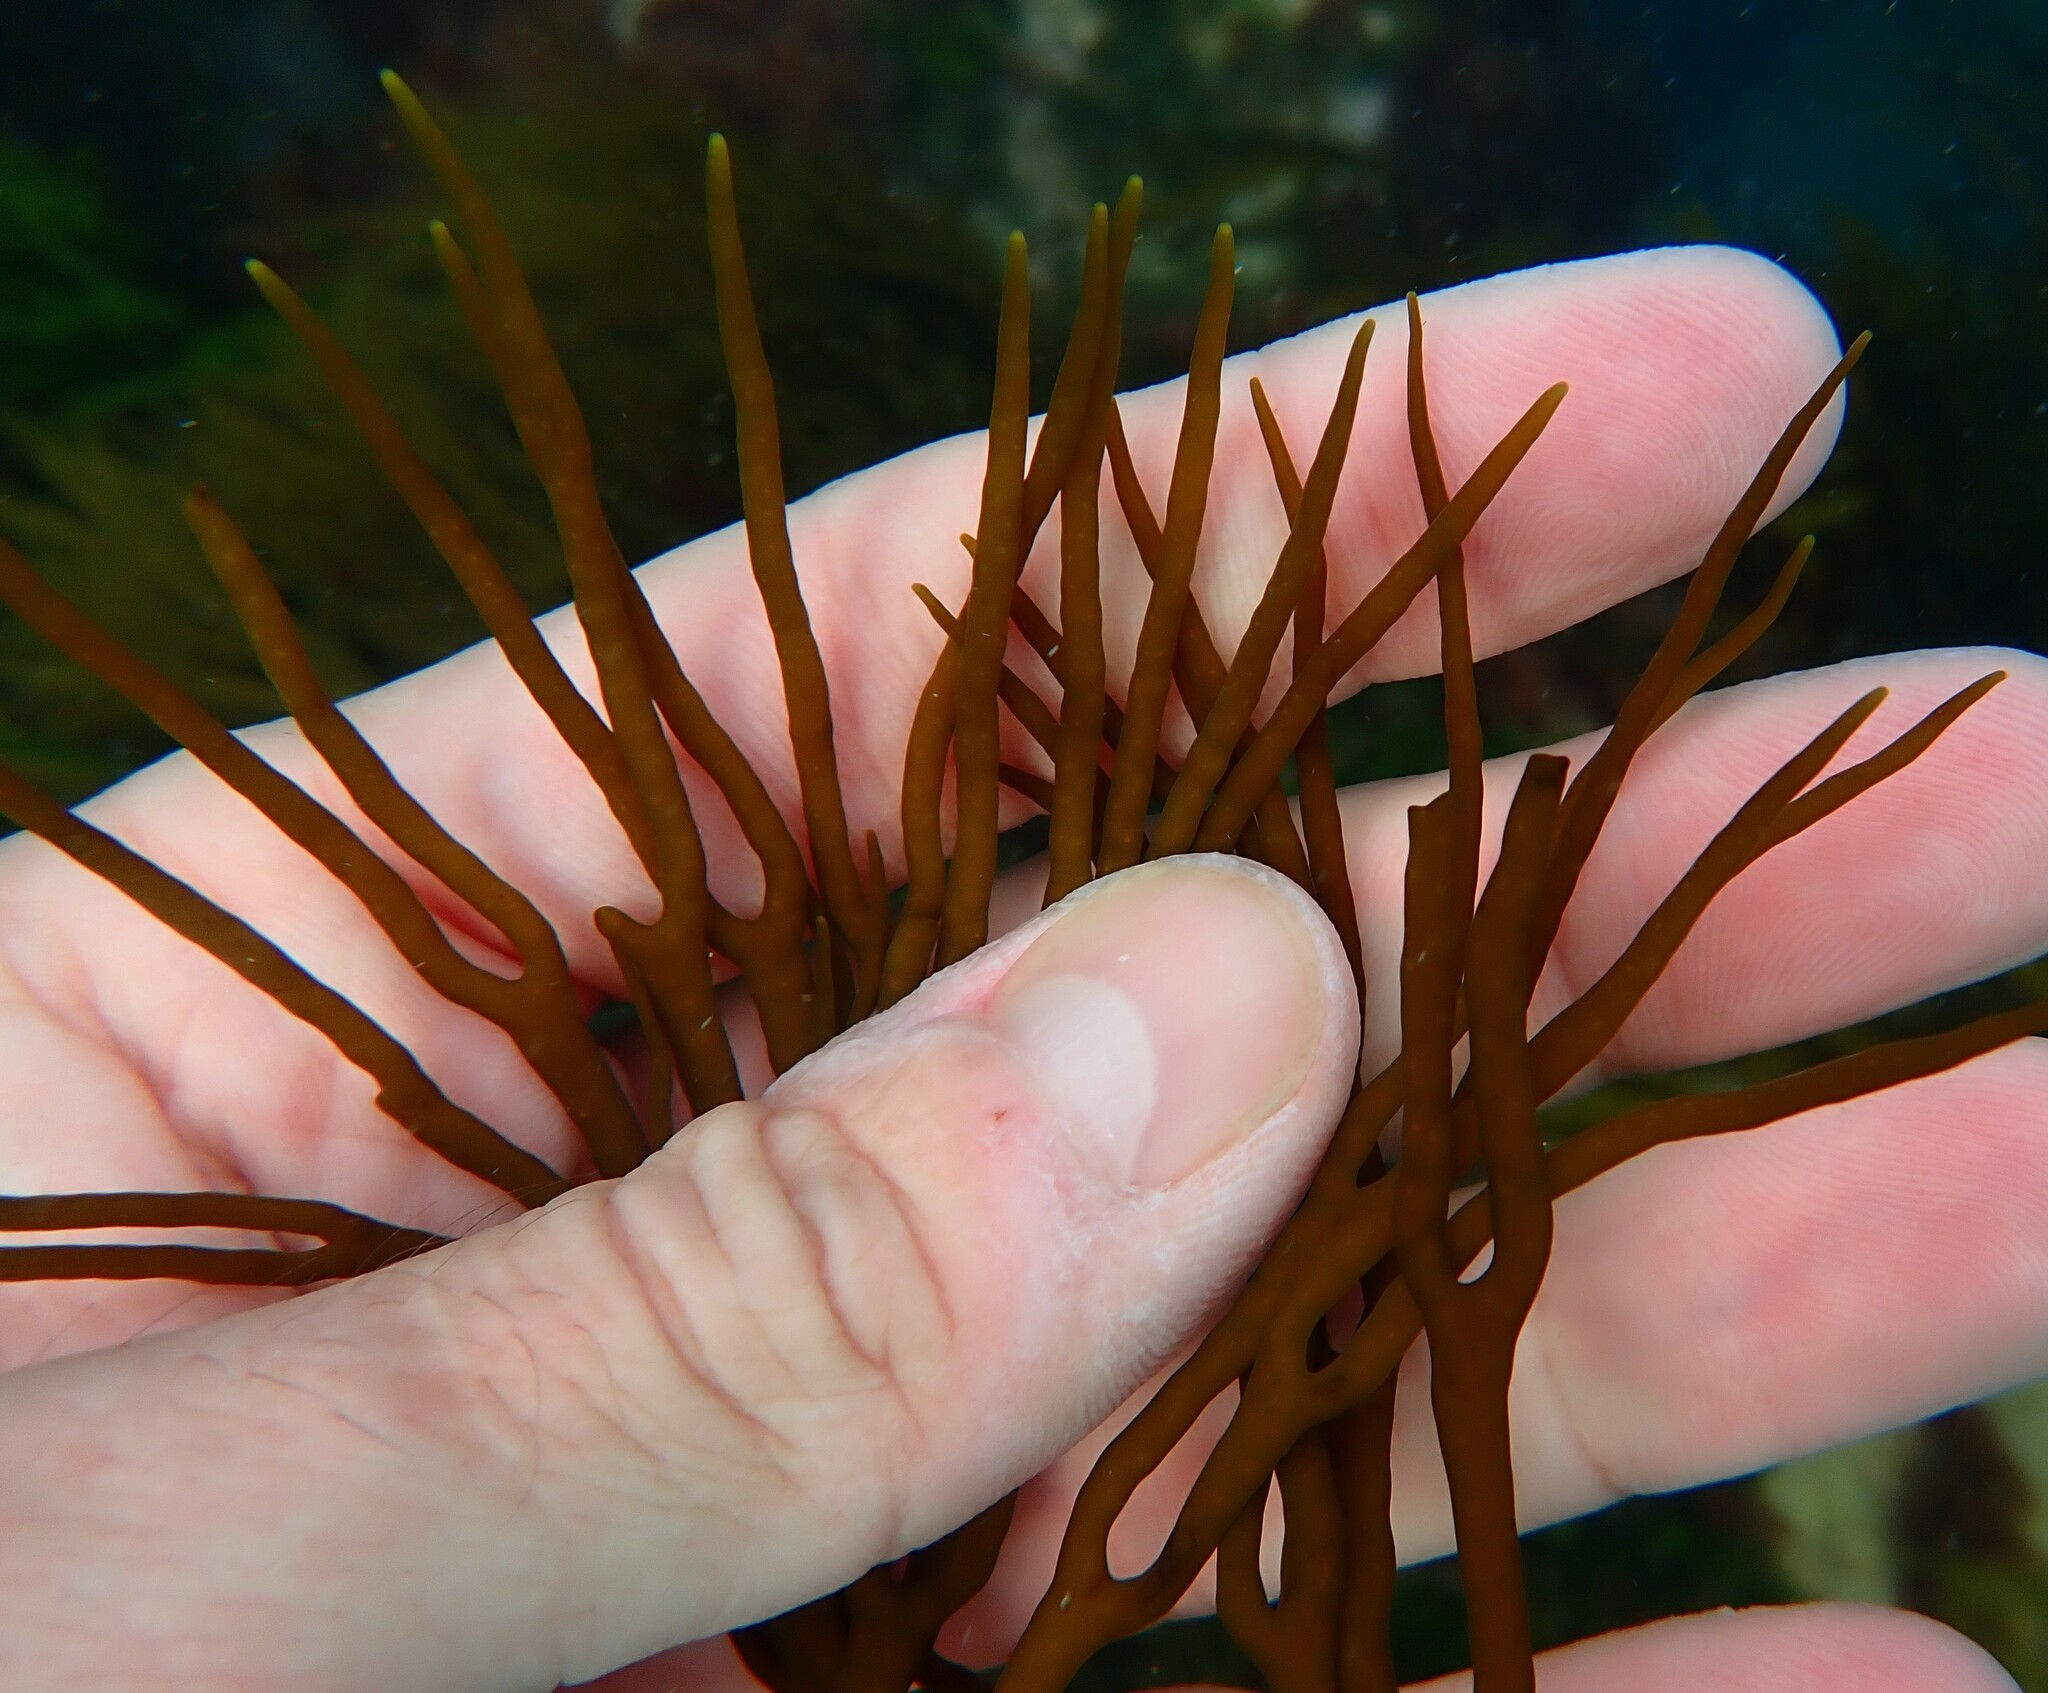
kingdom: Chromista
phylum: Ochrophyta
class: Phaeophyceae
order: Fucales
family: Sargassaceae
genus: Cystophora
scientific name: Cystophora
